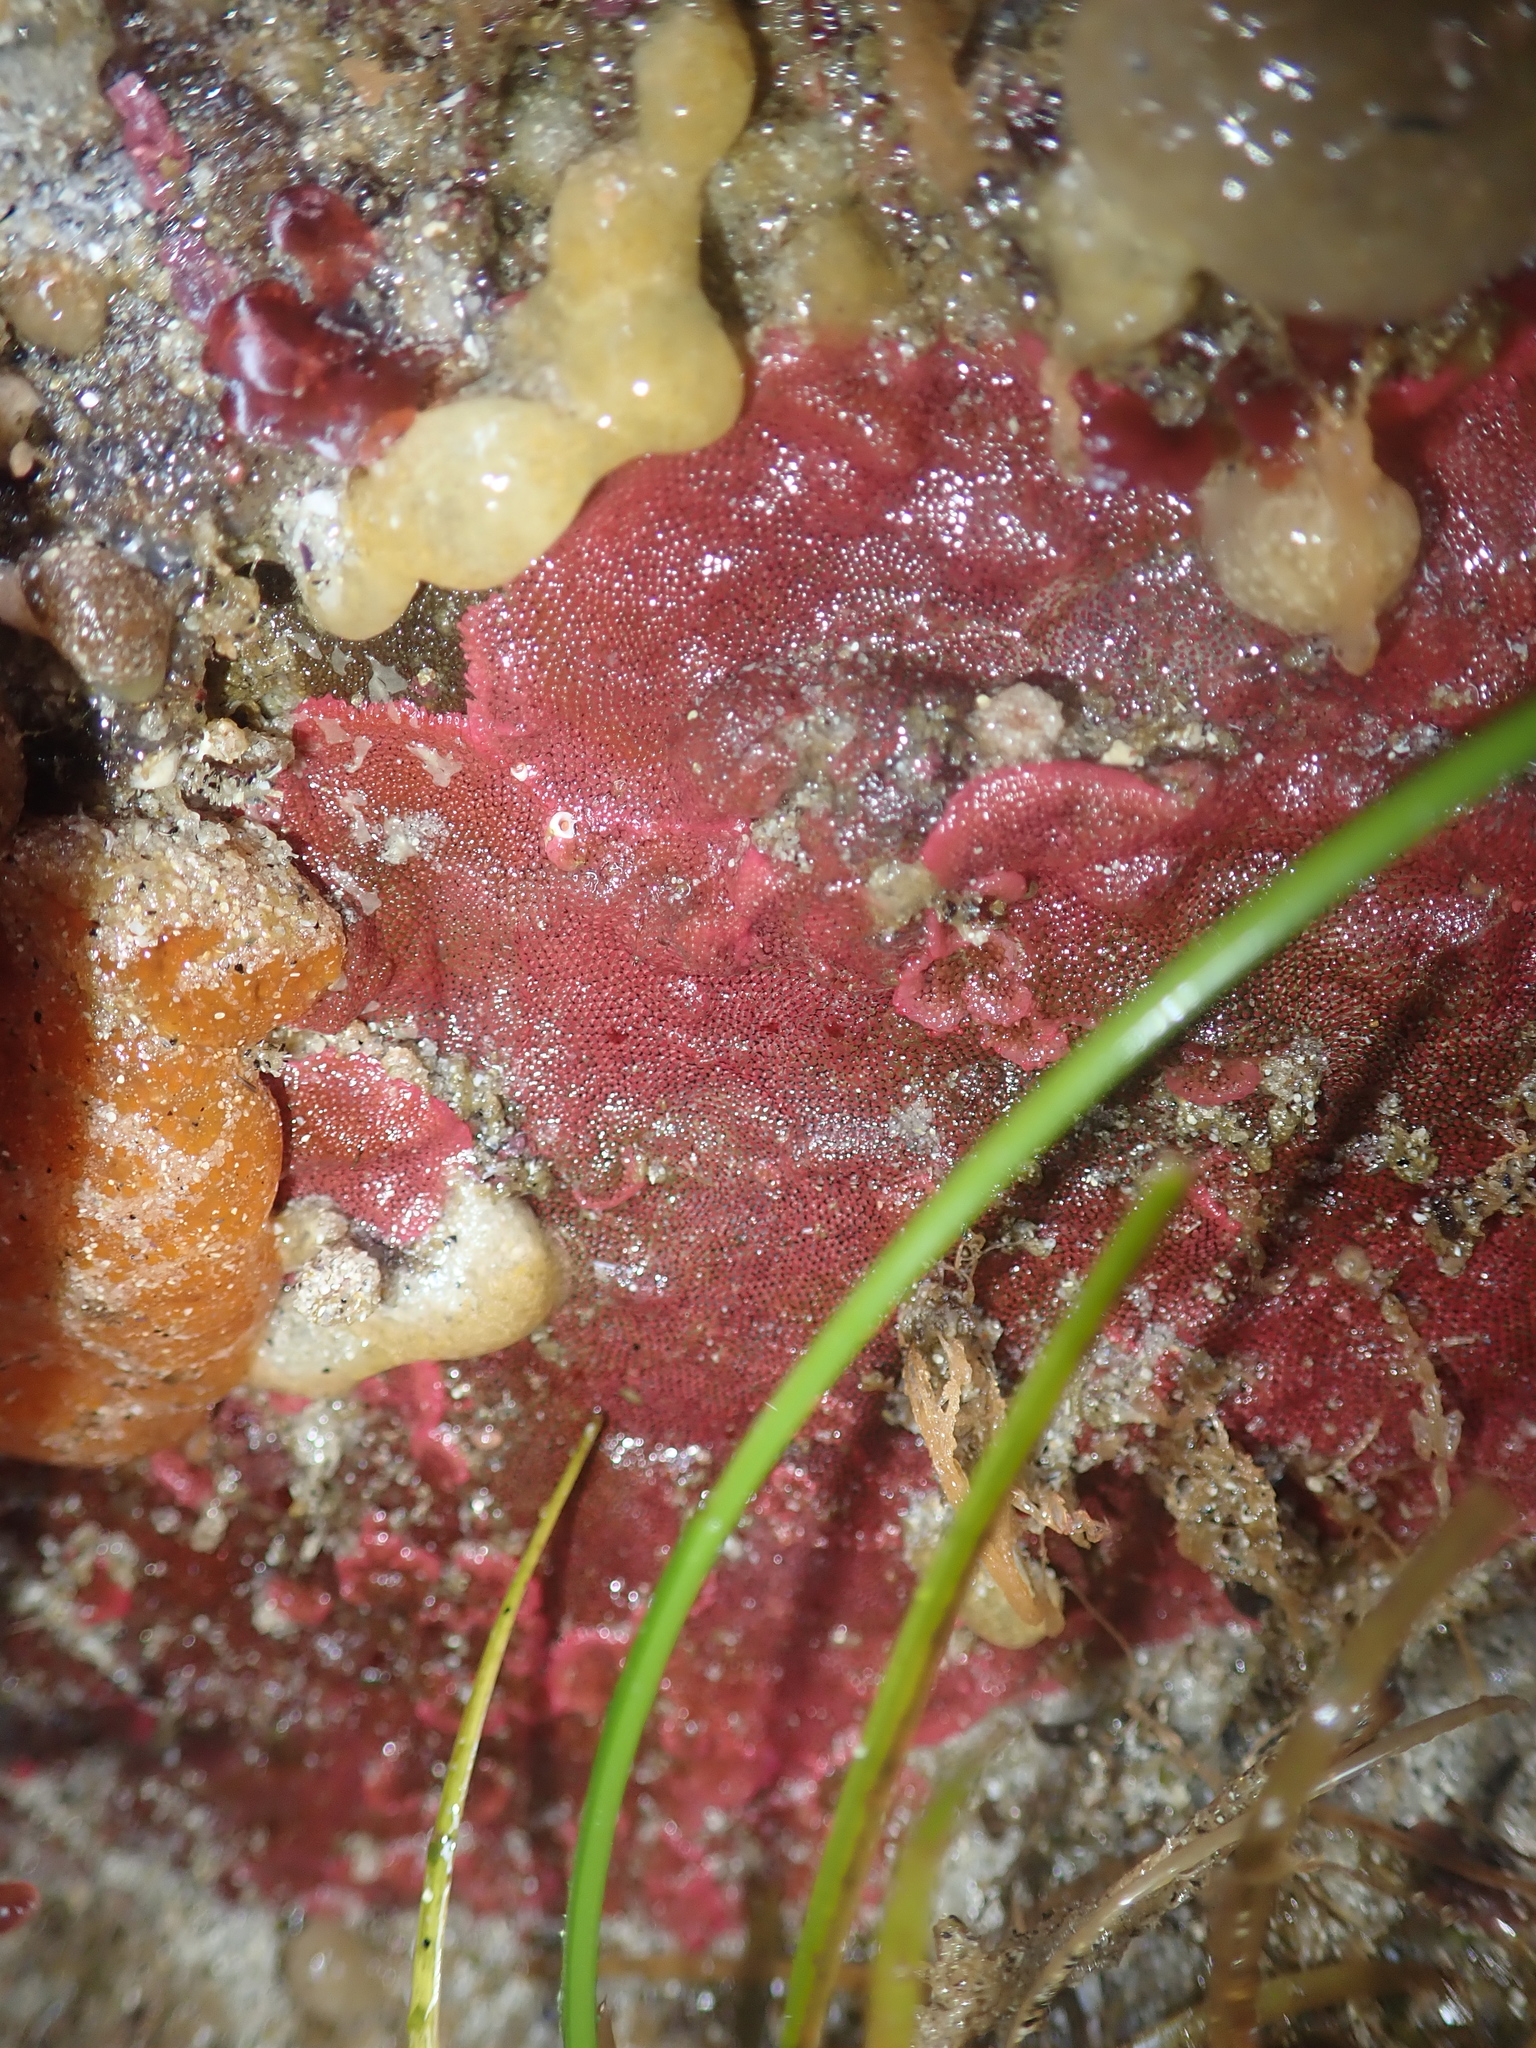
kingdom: Animalia
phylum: Bryozoa
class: Gymnolaemata
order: Cheilostomatida
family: Eurystomellidae
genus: Integripelta
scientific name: Integripelta bilabiata
